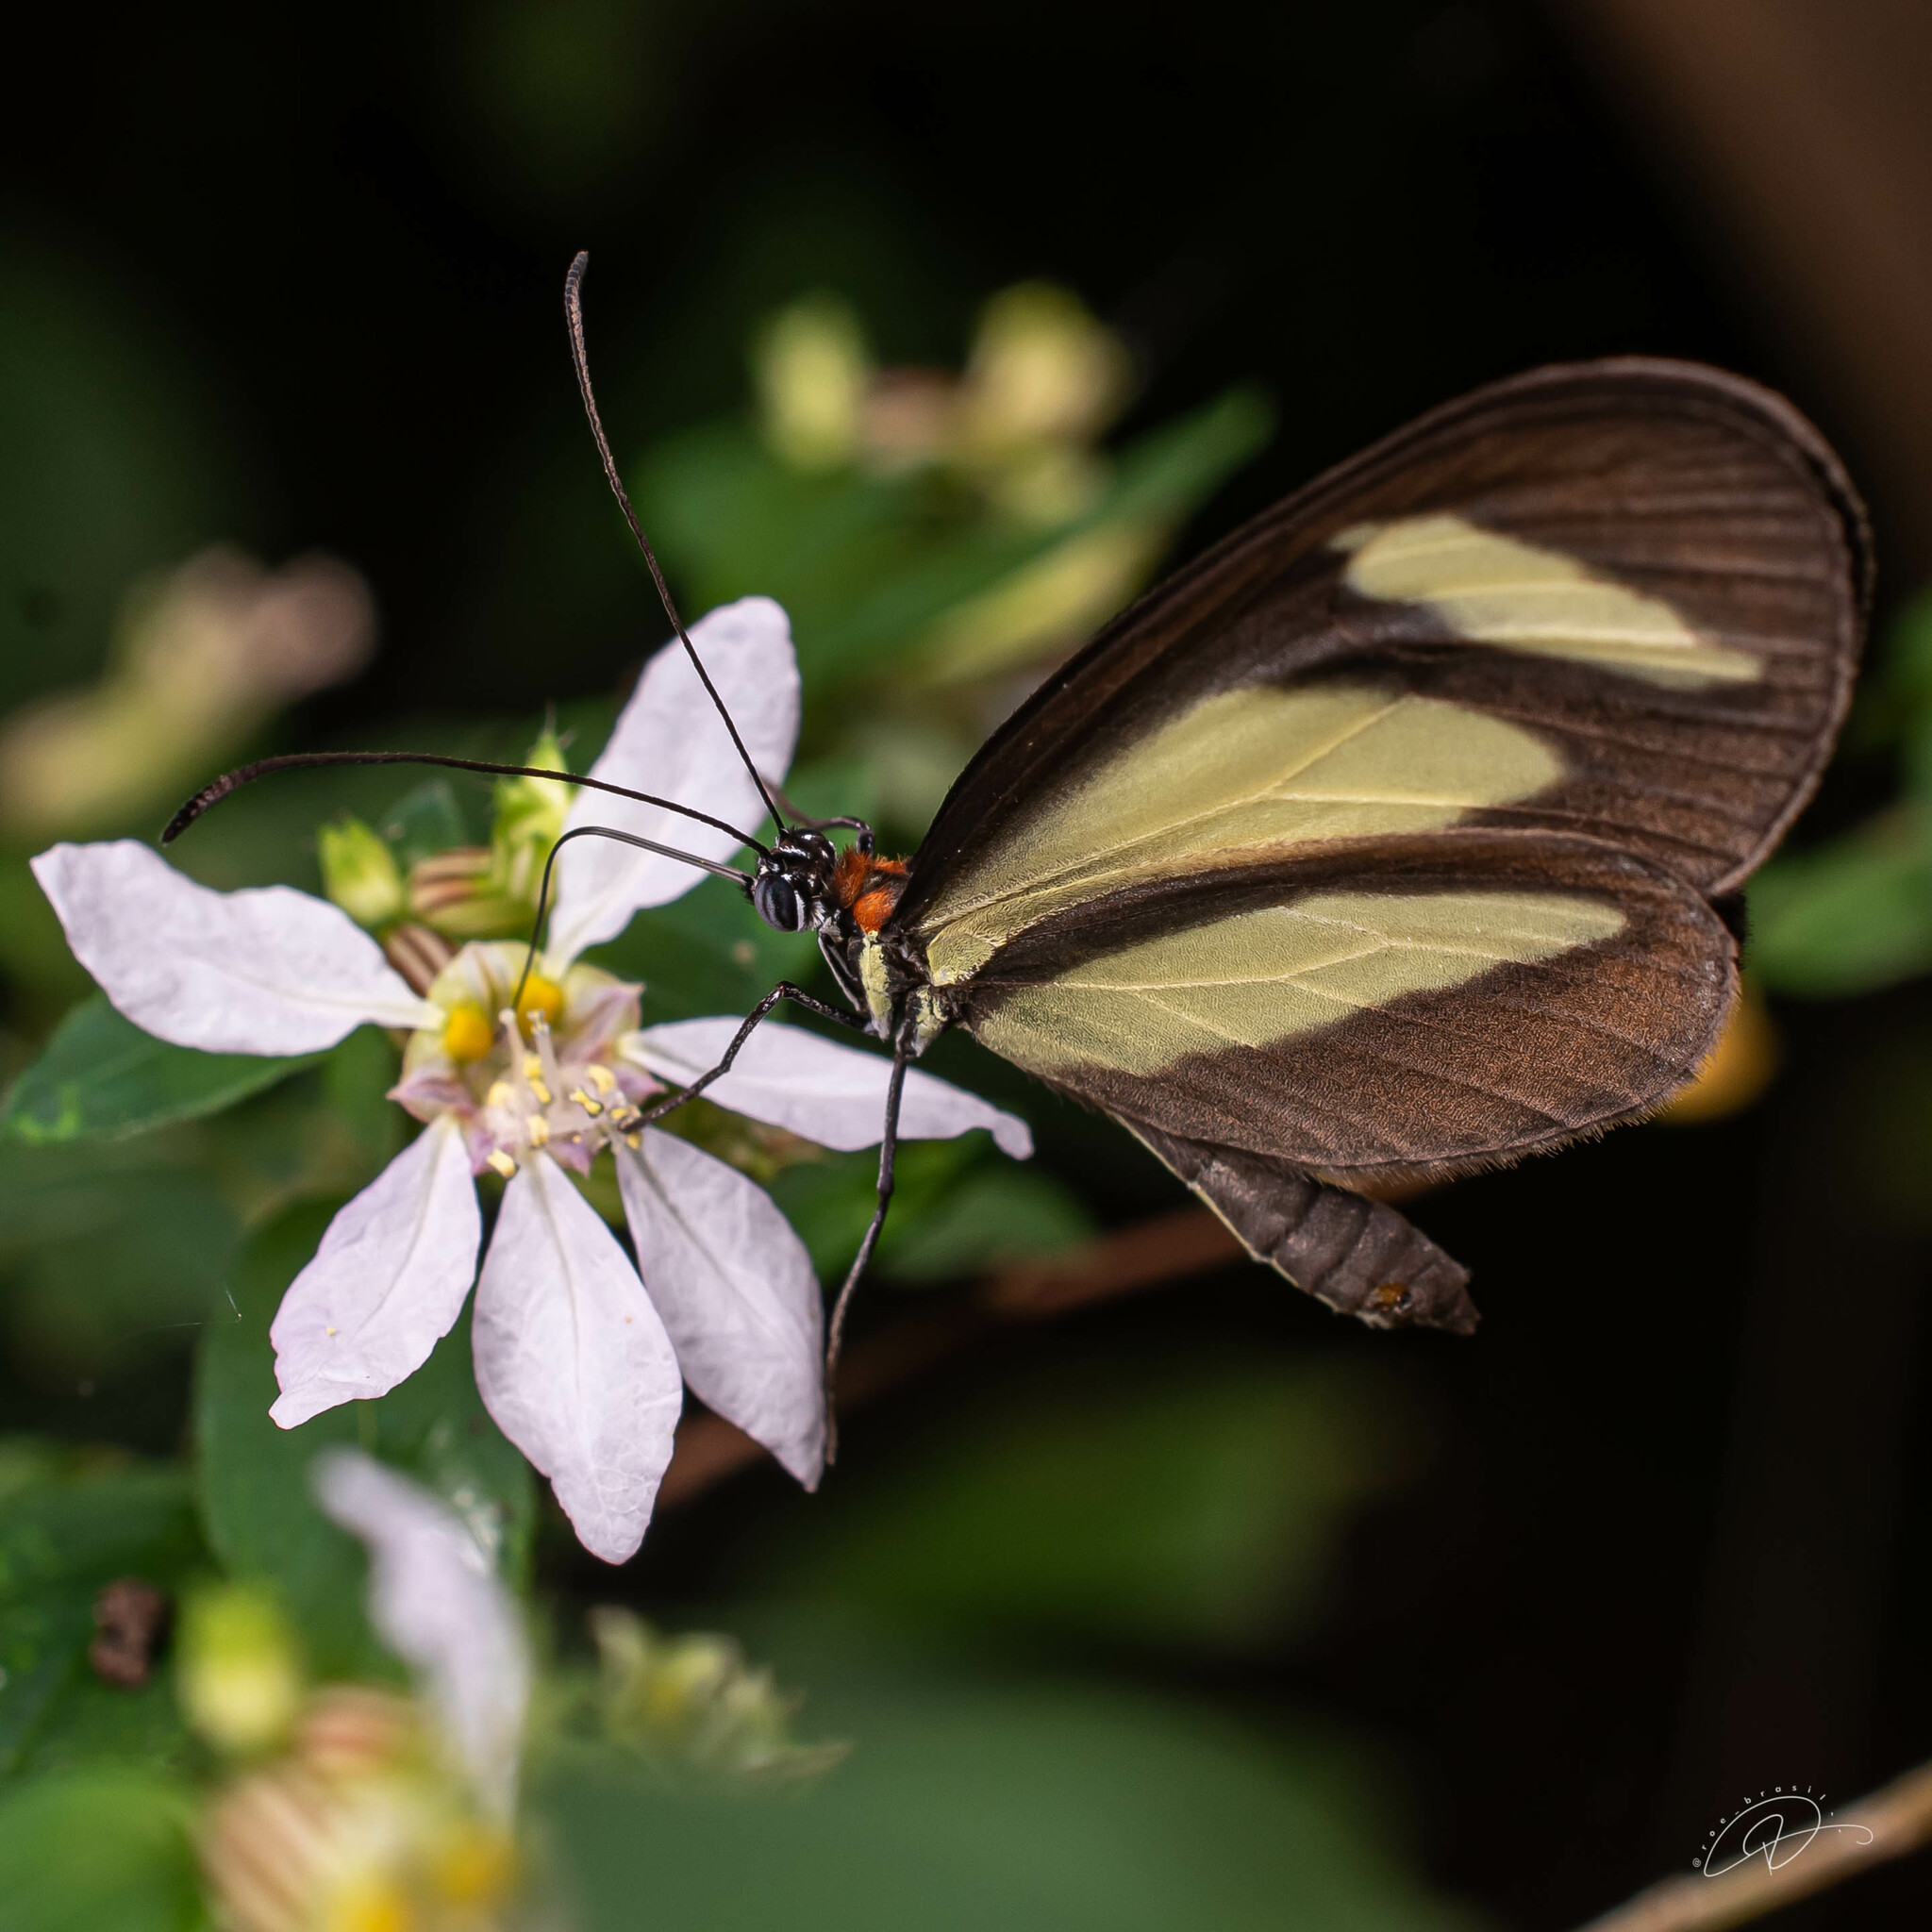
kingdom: Animalia
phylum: Arthropoda
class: Insecta
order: Lepidoptera
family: Nymphalidae
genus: Aeria
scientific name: Aeria olena
